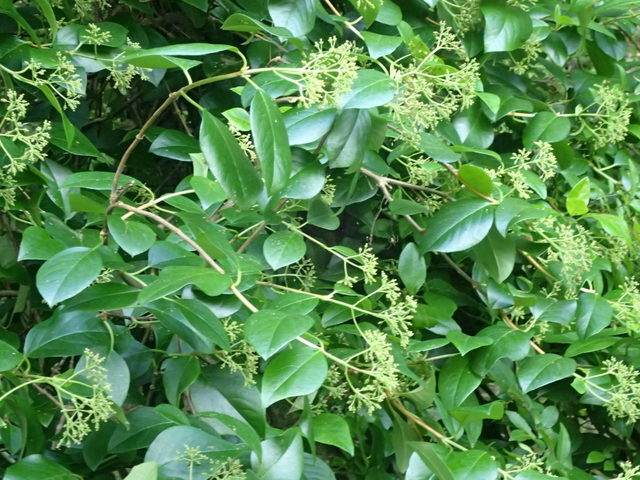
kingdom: Plantae
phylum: Tracheophyta
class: Magnoliopsida
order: Cornales
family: Hydrangeaceae
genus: Hydrangea
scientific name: Hydrangea barbara
